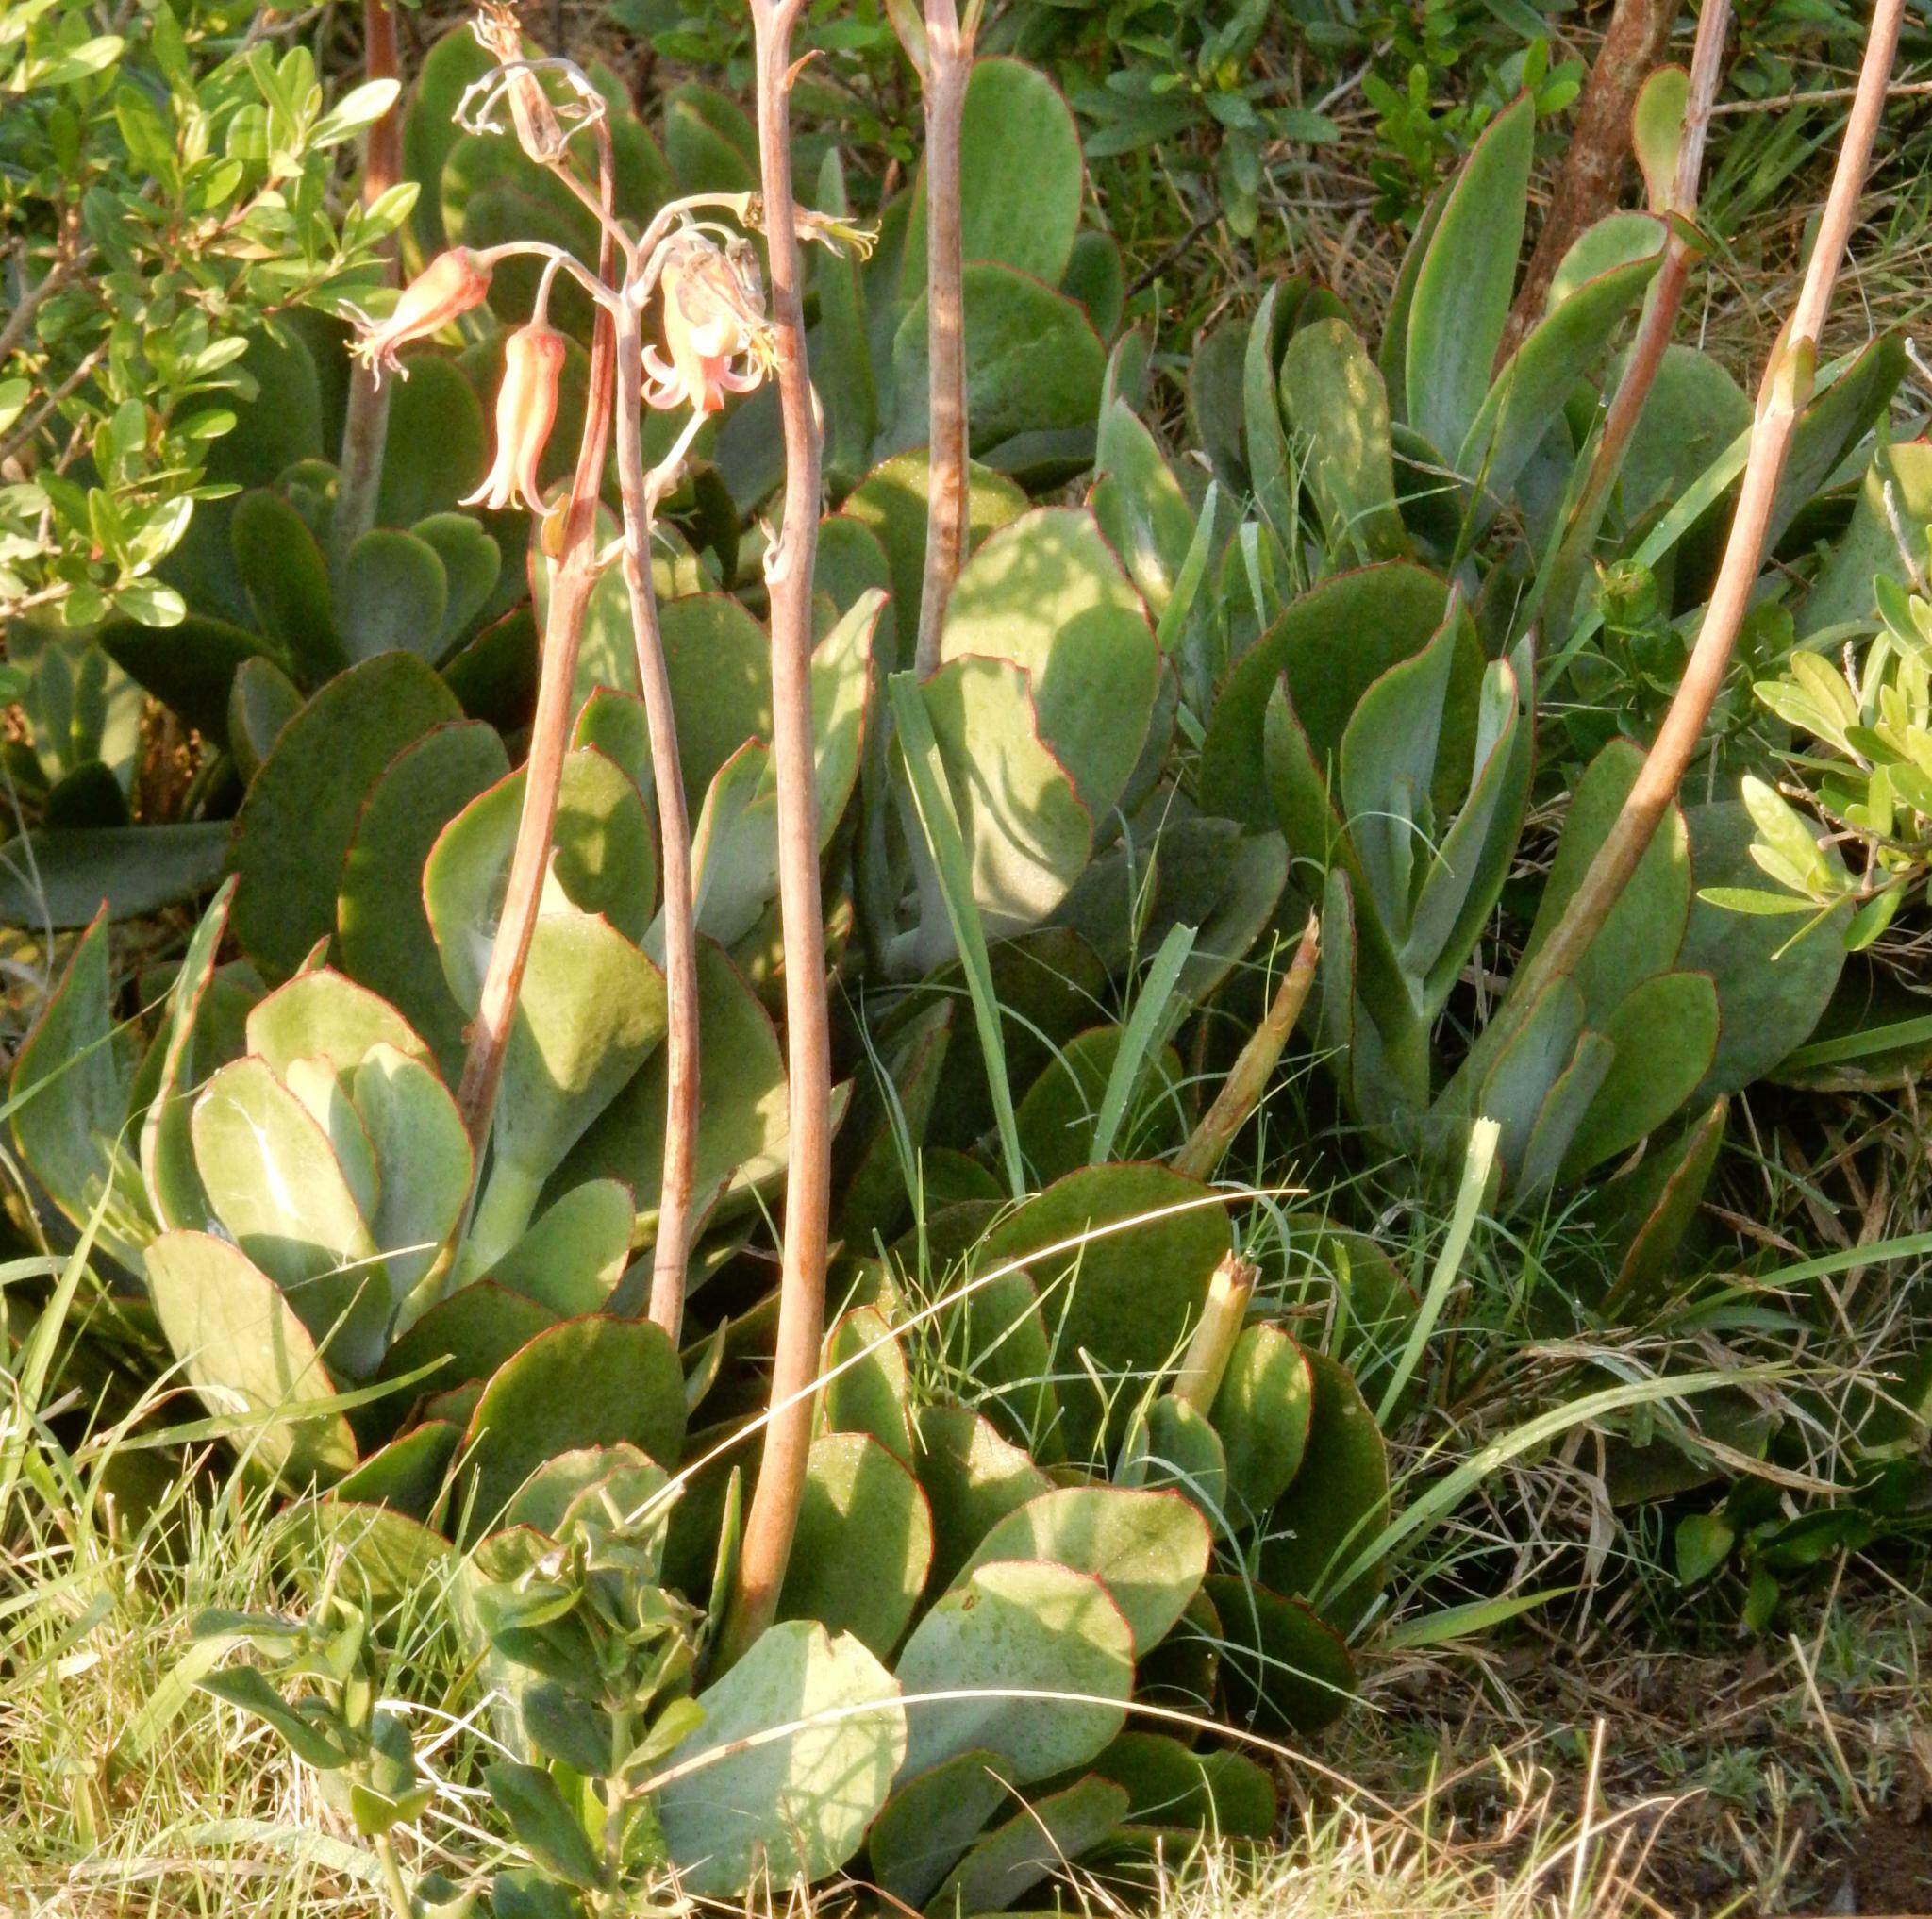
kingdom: Plantae
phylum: Tracheophyta
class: Magnoliopsida
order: Saxifragales
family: Crassulaceae
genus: Cotyledon
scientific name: Cotyledon orbiculata
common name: Pig's ear
